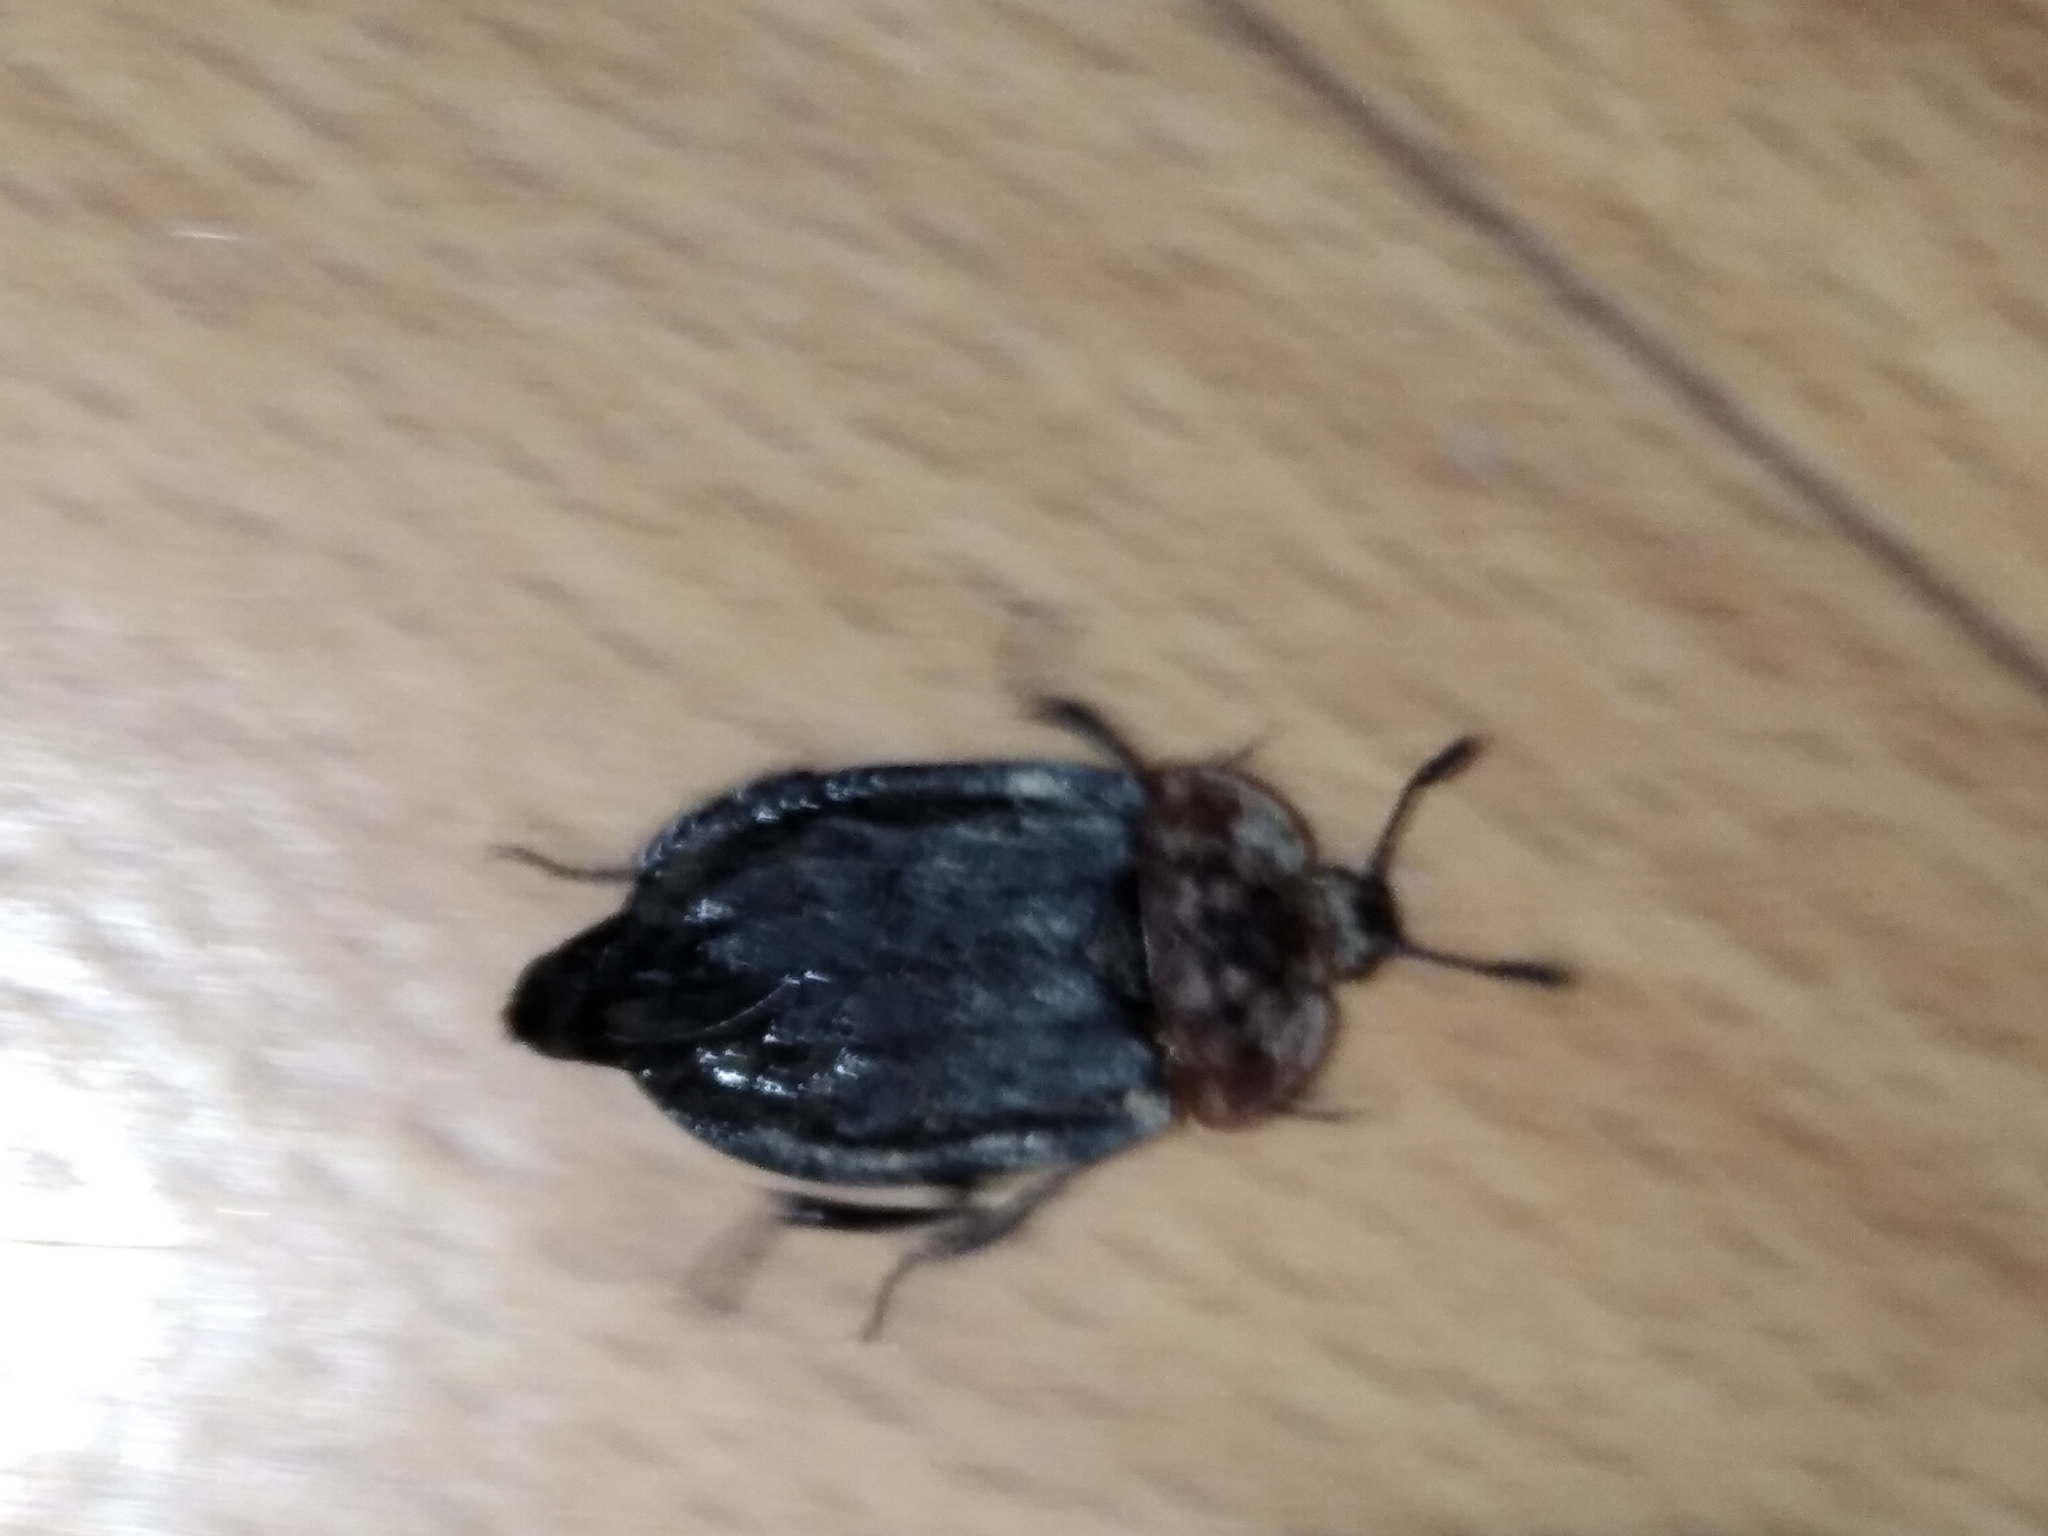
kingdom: Animalia
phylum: Arthropoda
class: Insecta
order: Coleoptera
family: Staphylinidae
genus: Oiceoptoma
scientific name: Oiceoptoma thoracicum
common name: Red-breasted carrion beetle
